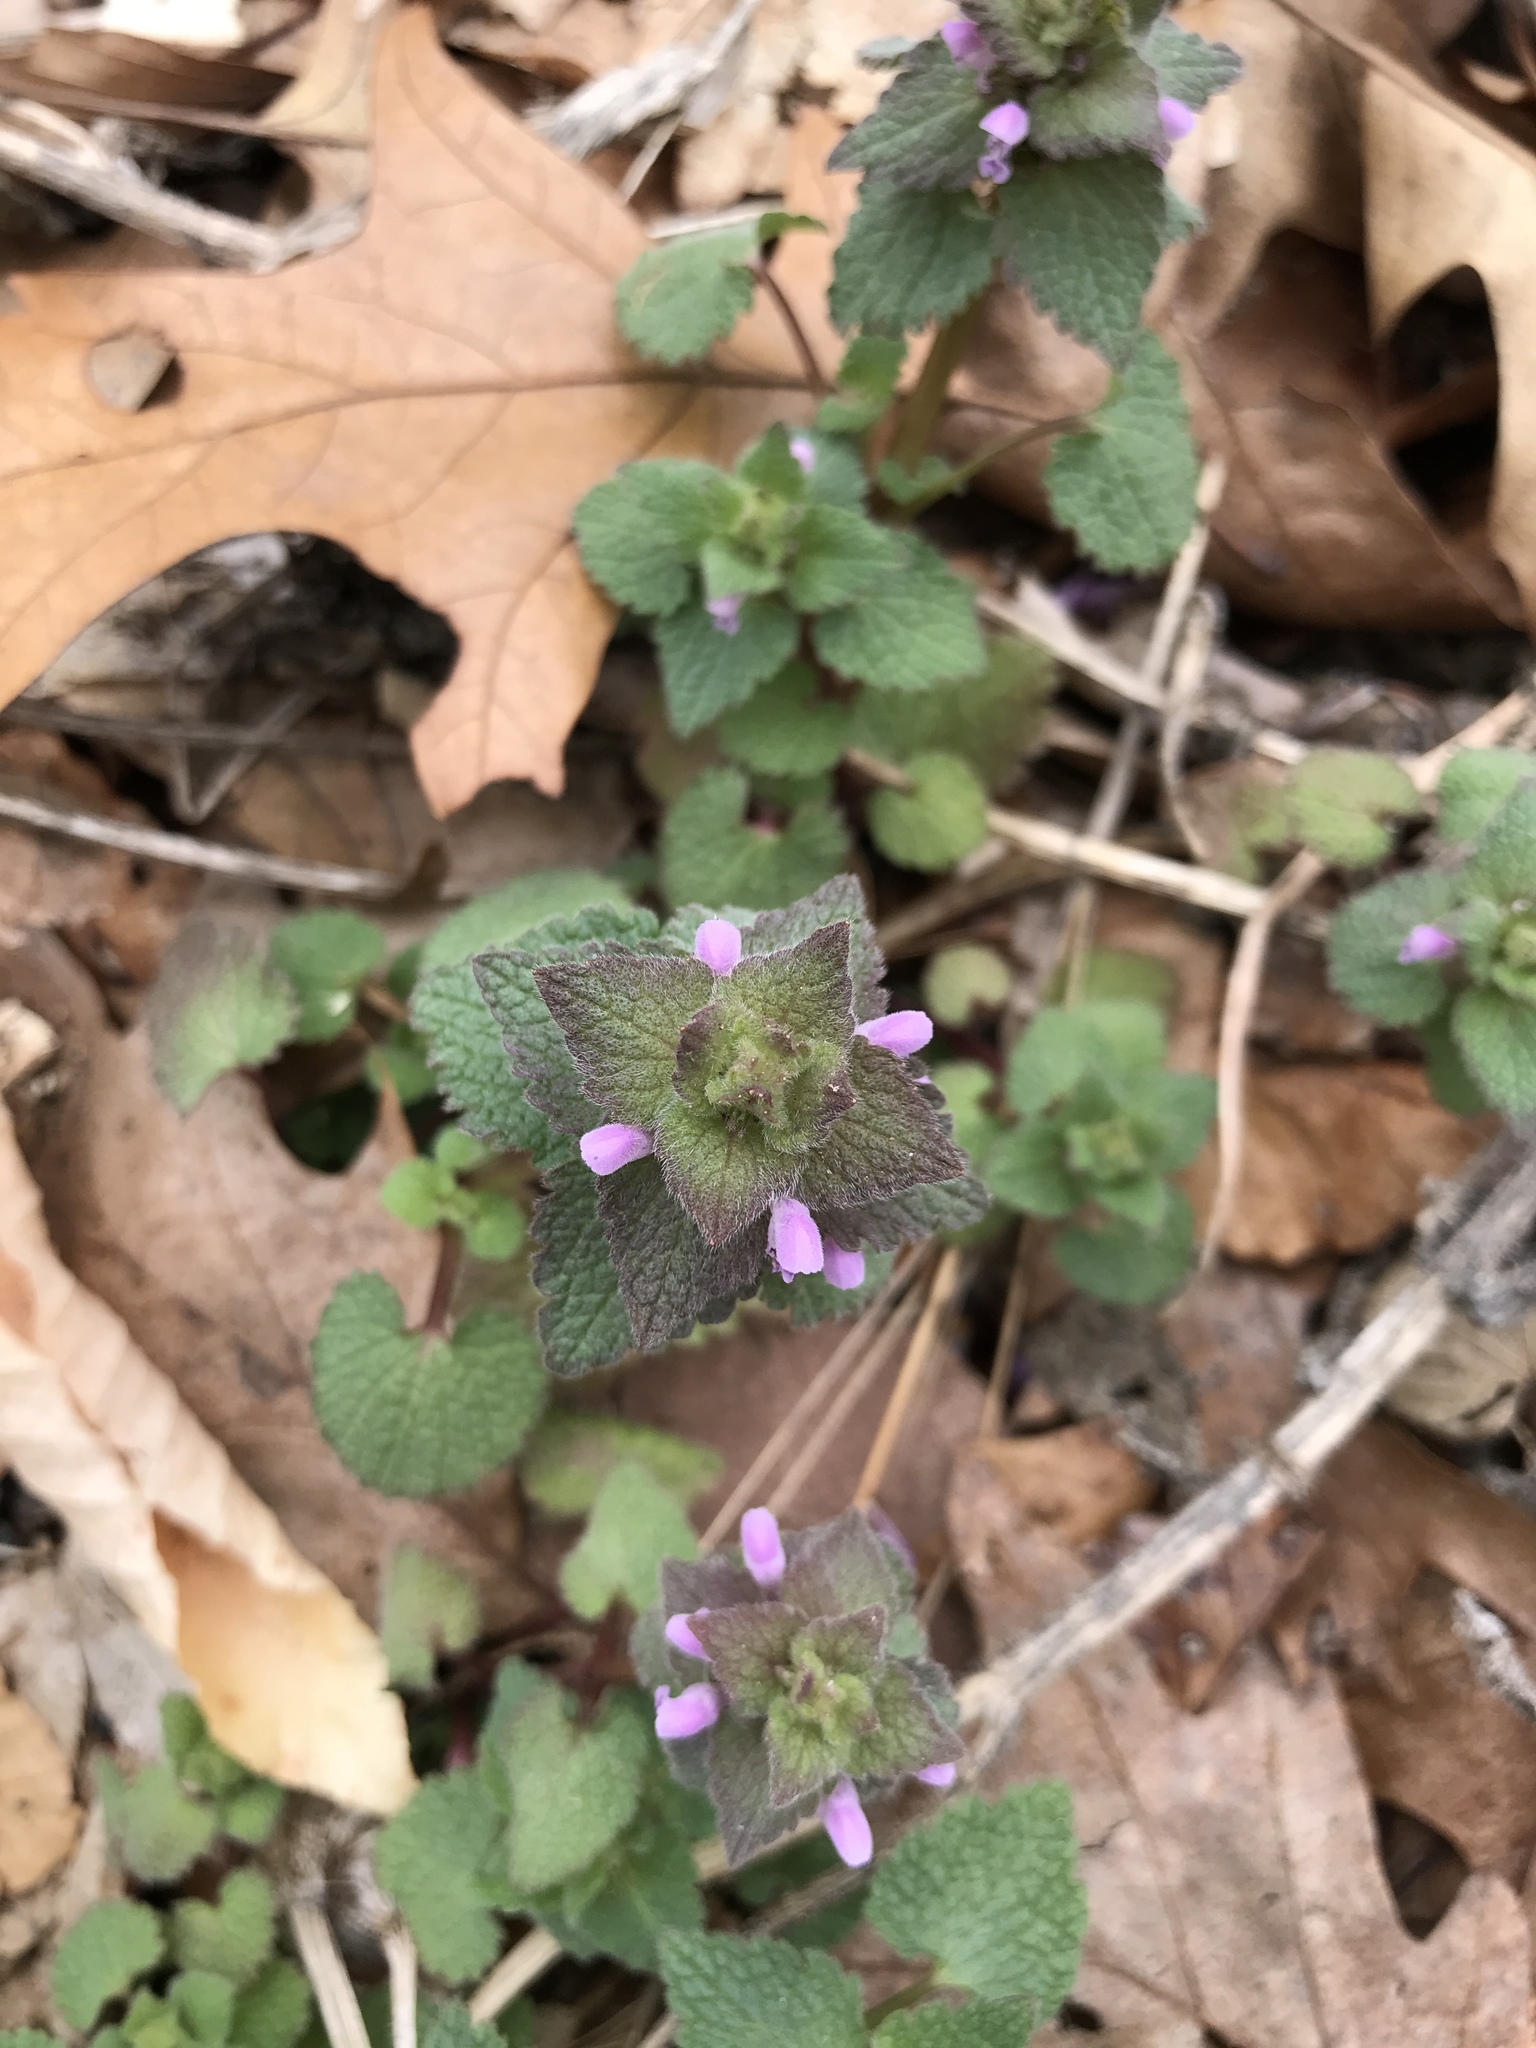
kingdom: Plantae
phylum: Tracheophyta
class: Magnoliopsida
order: Lamiales
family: Lamiaceae
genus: Lamium
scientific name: Lamium purpureum
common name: Red dead-nettle
